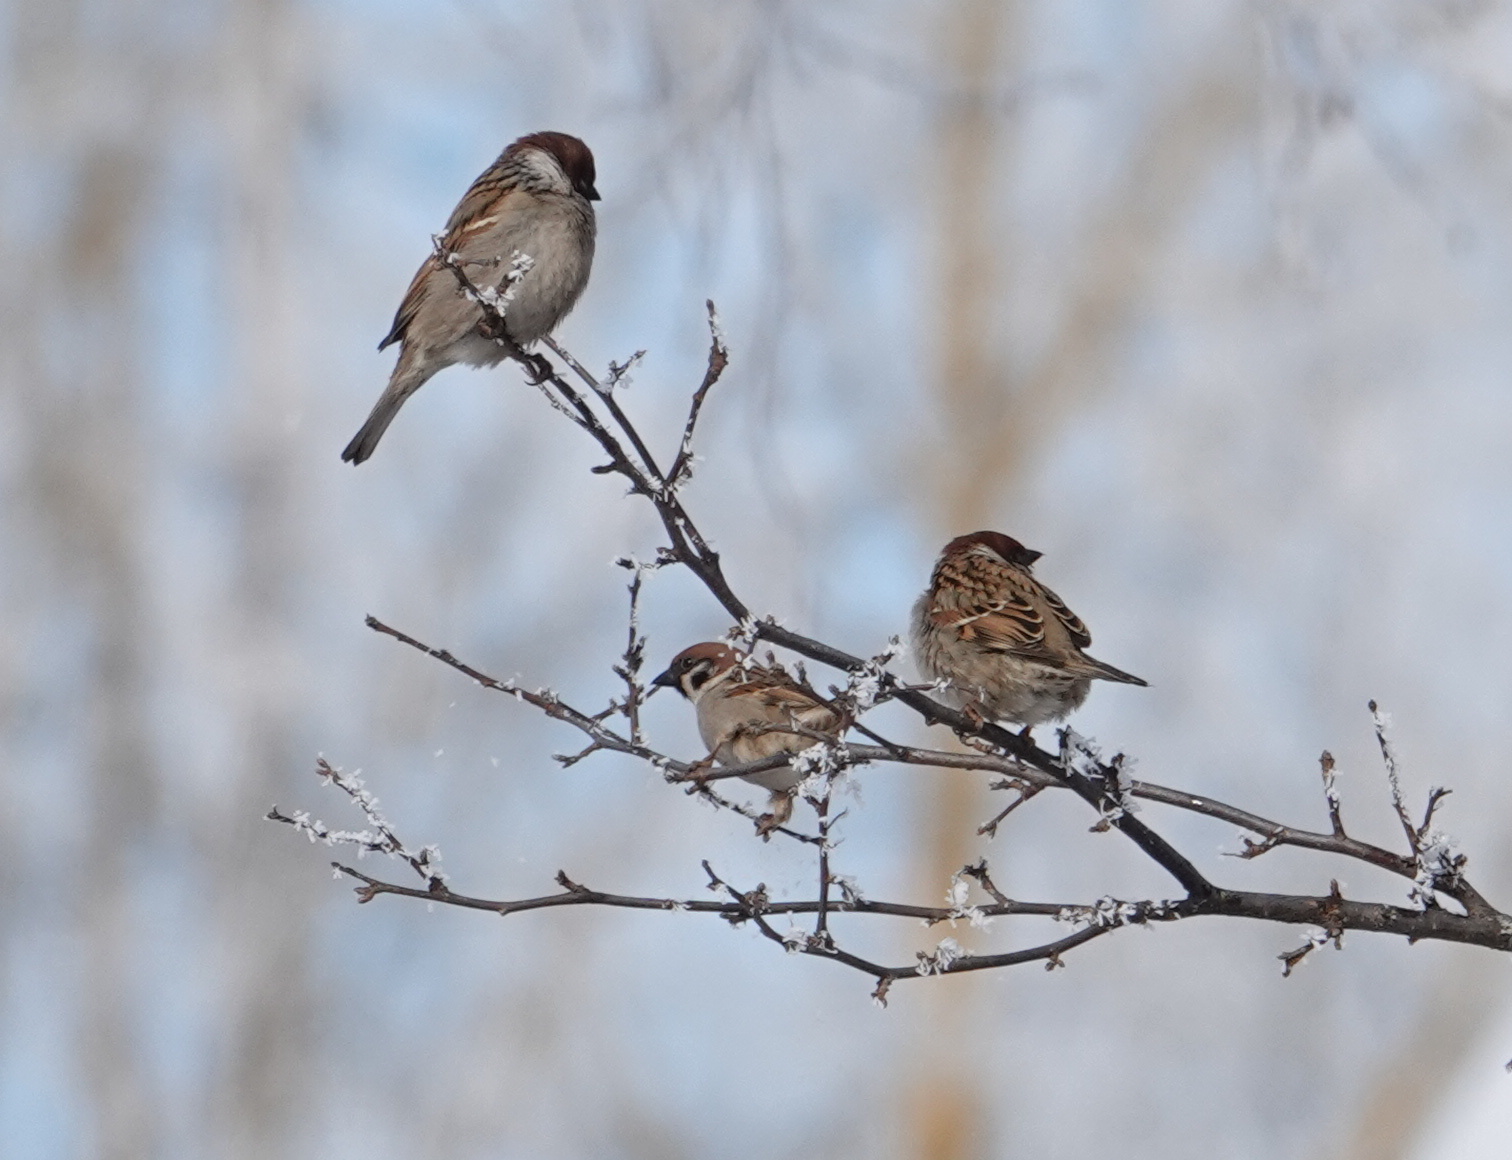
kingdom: Animalia
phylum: Chordata
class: Aves
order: Passeriformes
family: Passeridae
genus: Passer
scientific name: Passer montanus
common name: Eurasian tree sparrow
